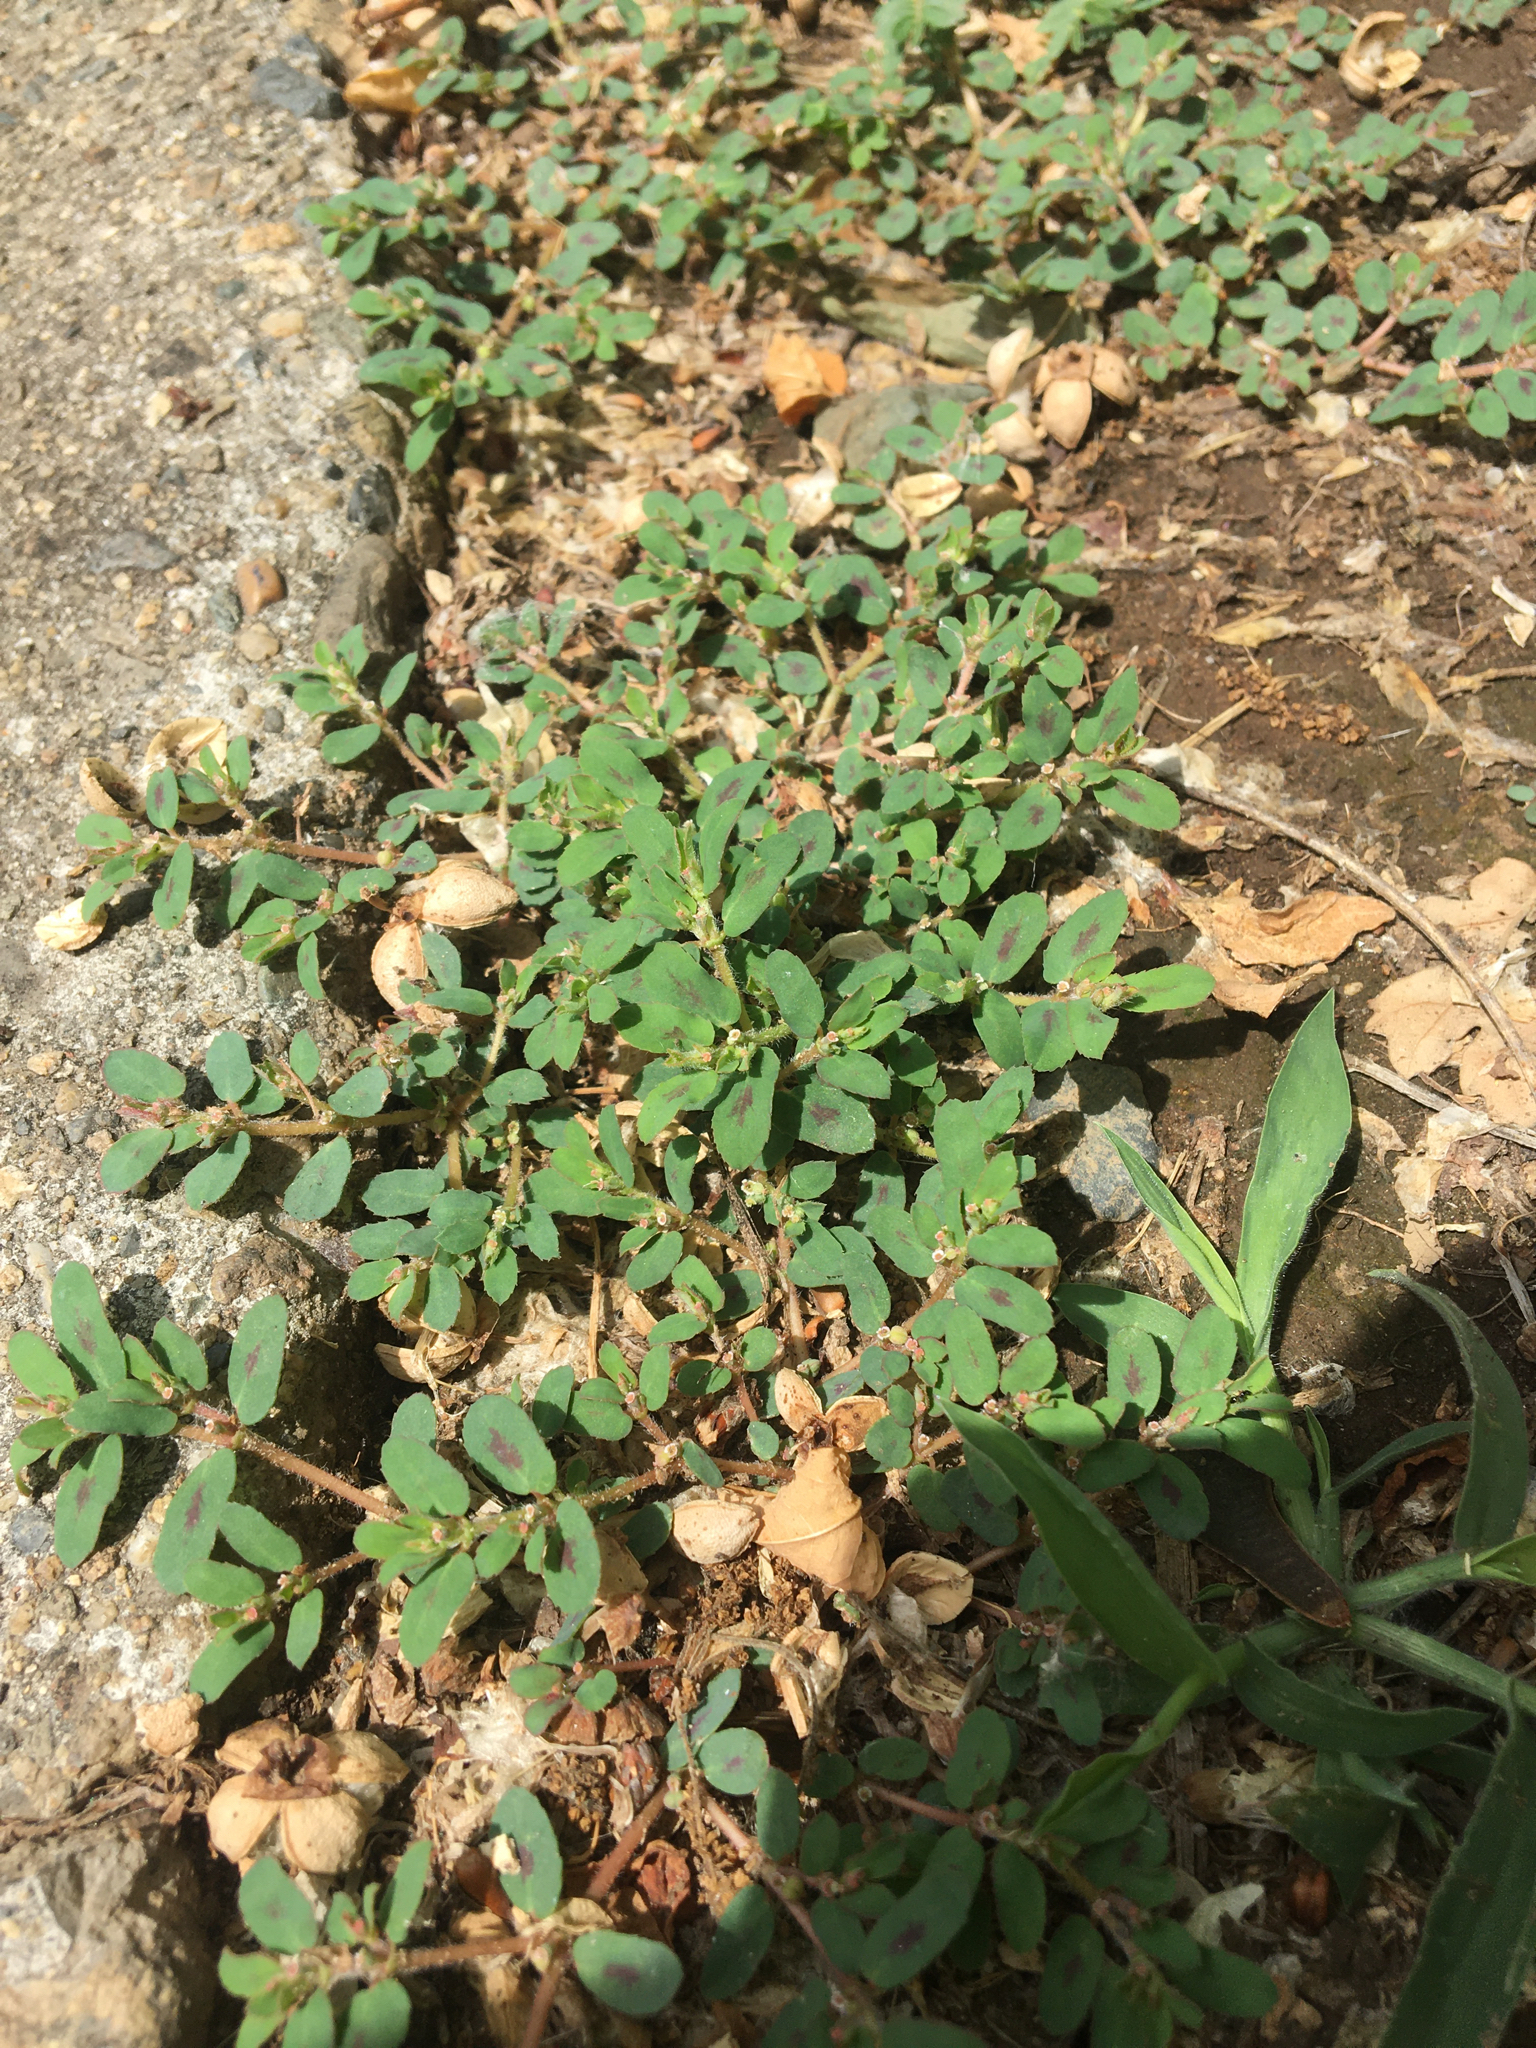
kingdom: Plantae
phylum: Tracheophyta
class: Magnoliopsida
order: Malpighiales
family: Euphorbiaceae
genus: Euphorbia
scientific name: Euphorbia maculata
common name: Spotted spurge
